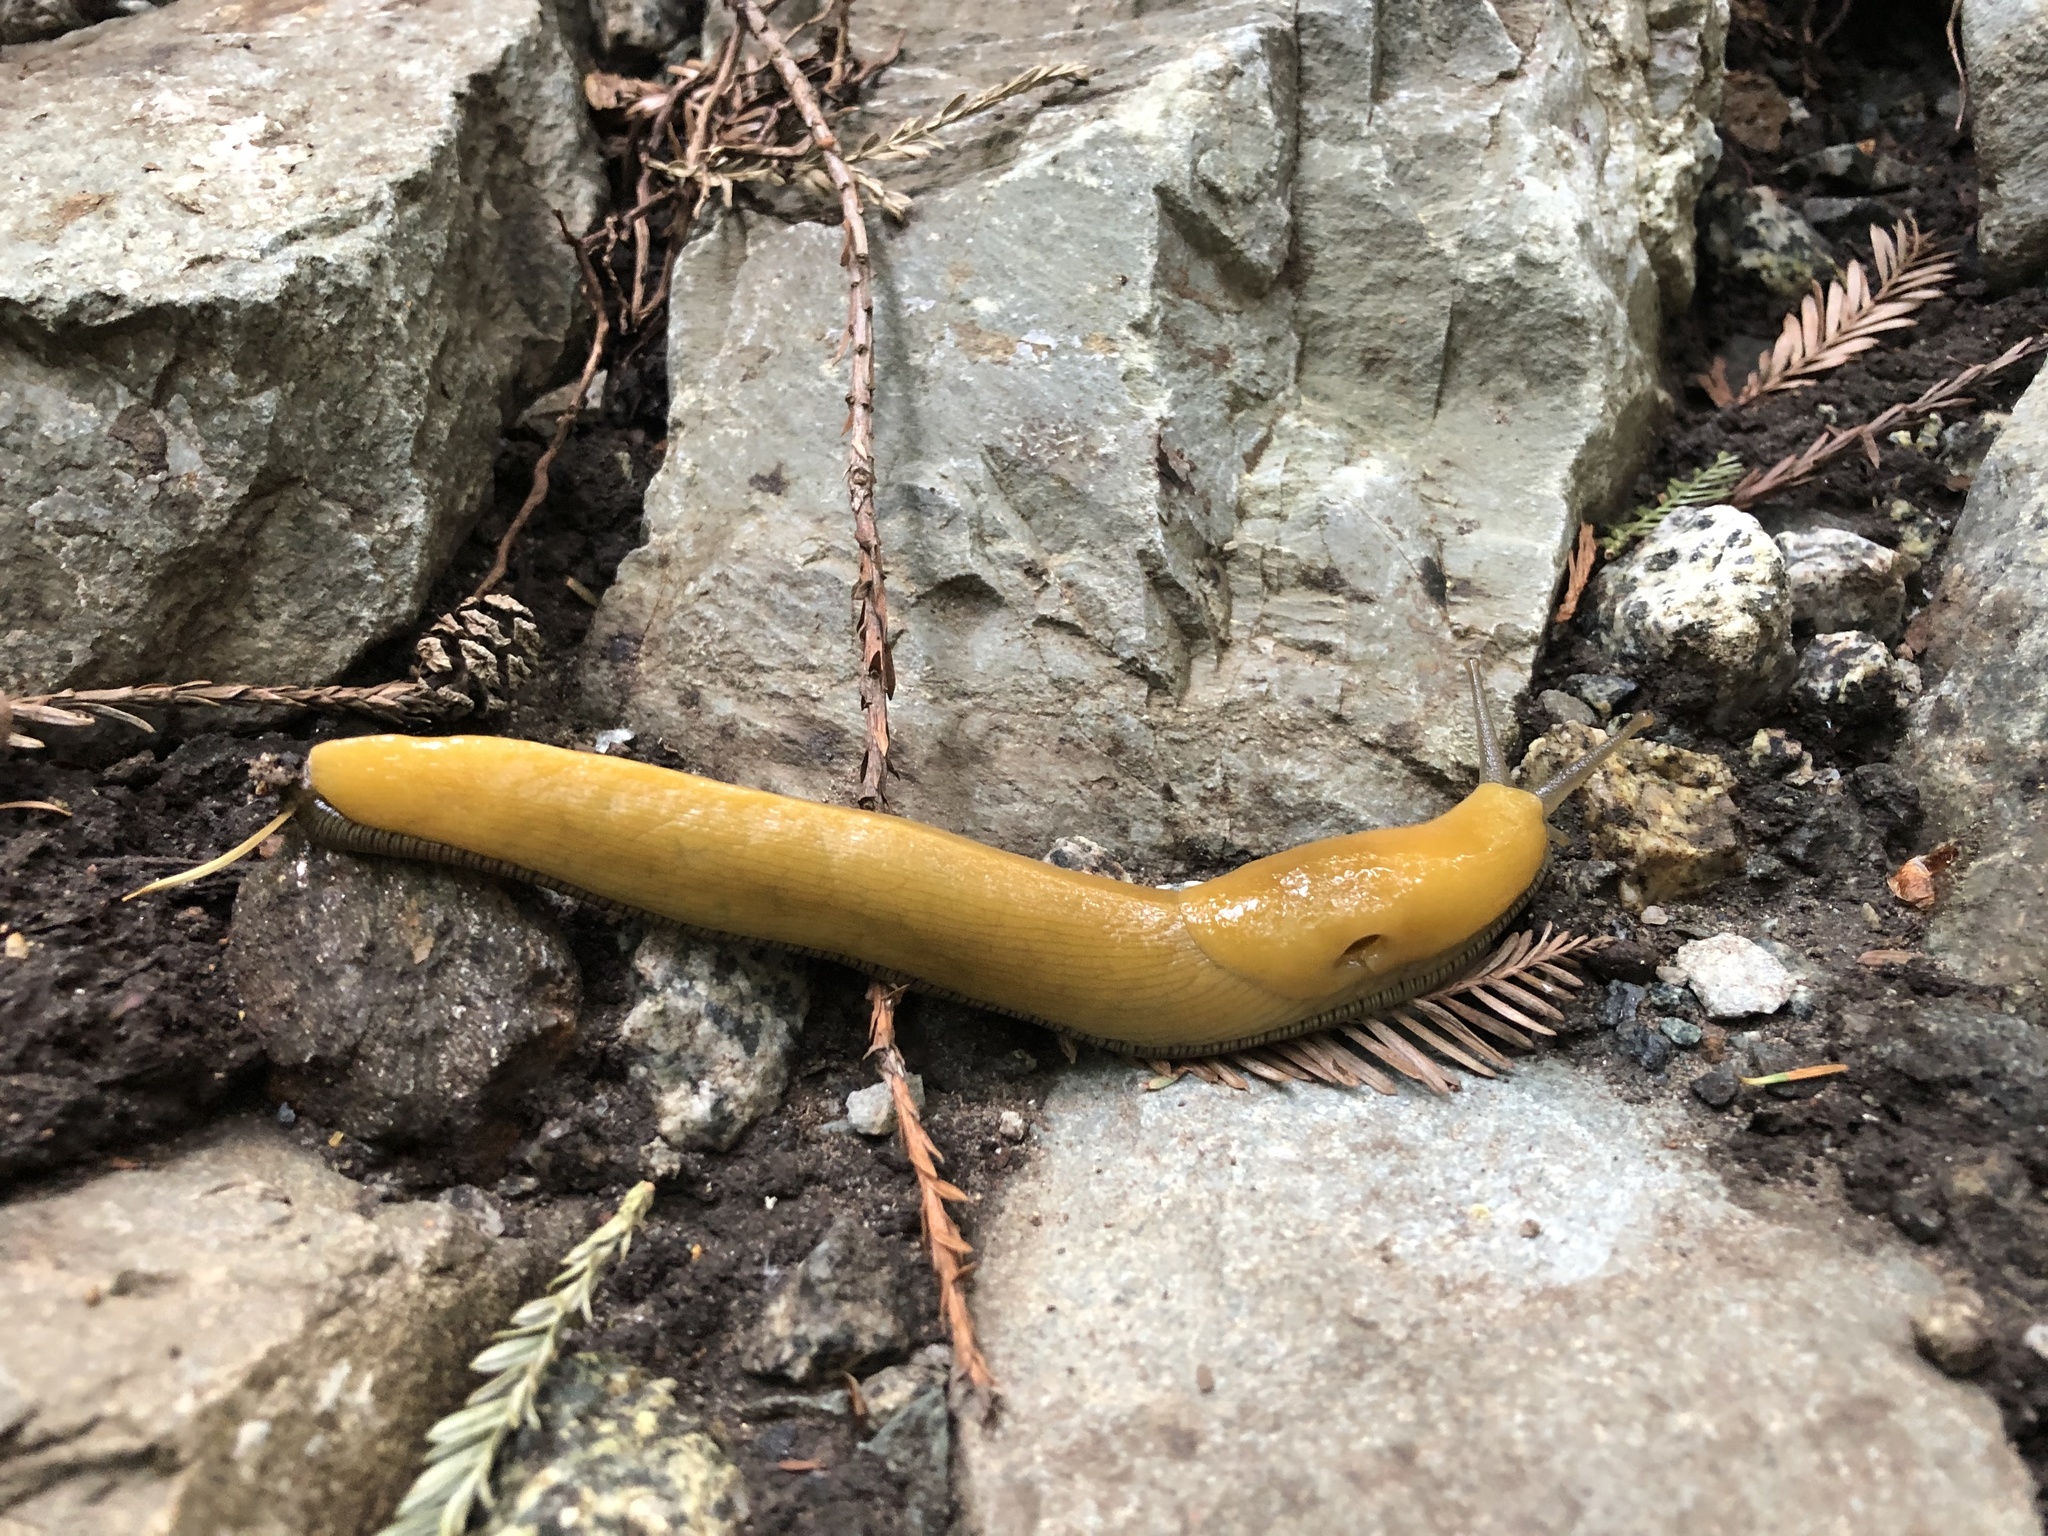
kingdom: Animalia
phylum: Mollusca
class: Gastropoda
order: Stylommatophora
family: Ariolimacidae
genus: Ariolimax
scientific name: Ariolimax dolichophallus
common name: Slender banana slug
